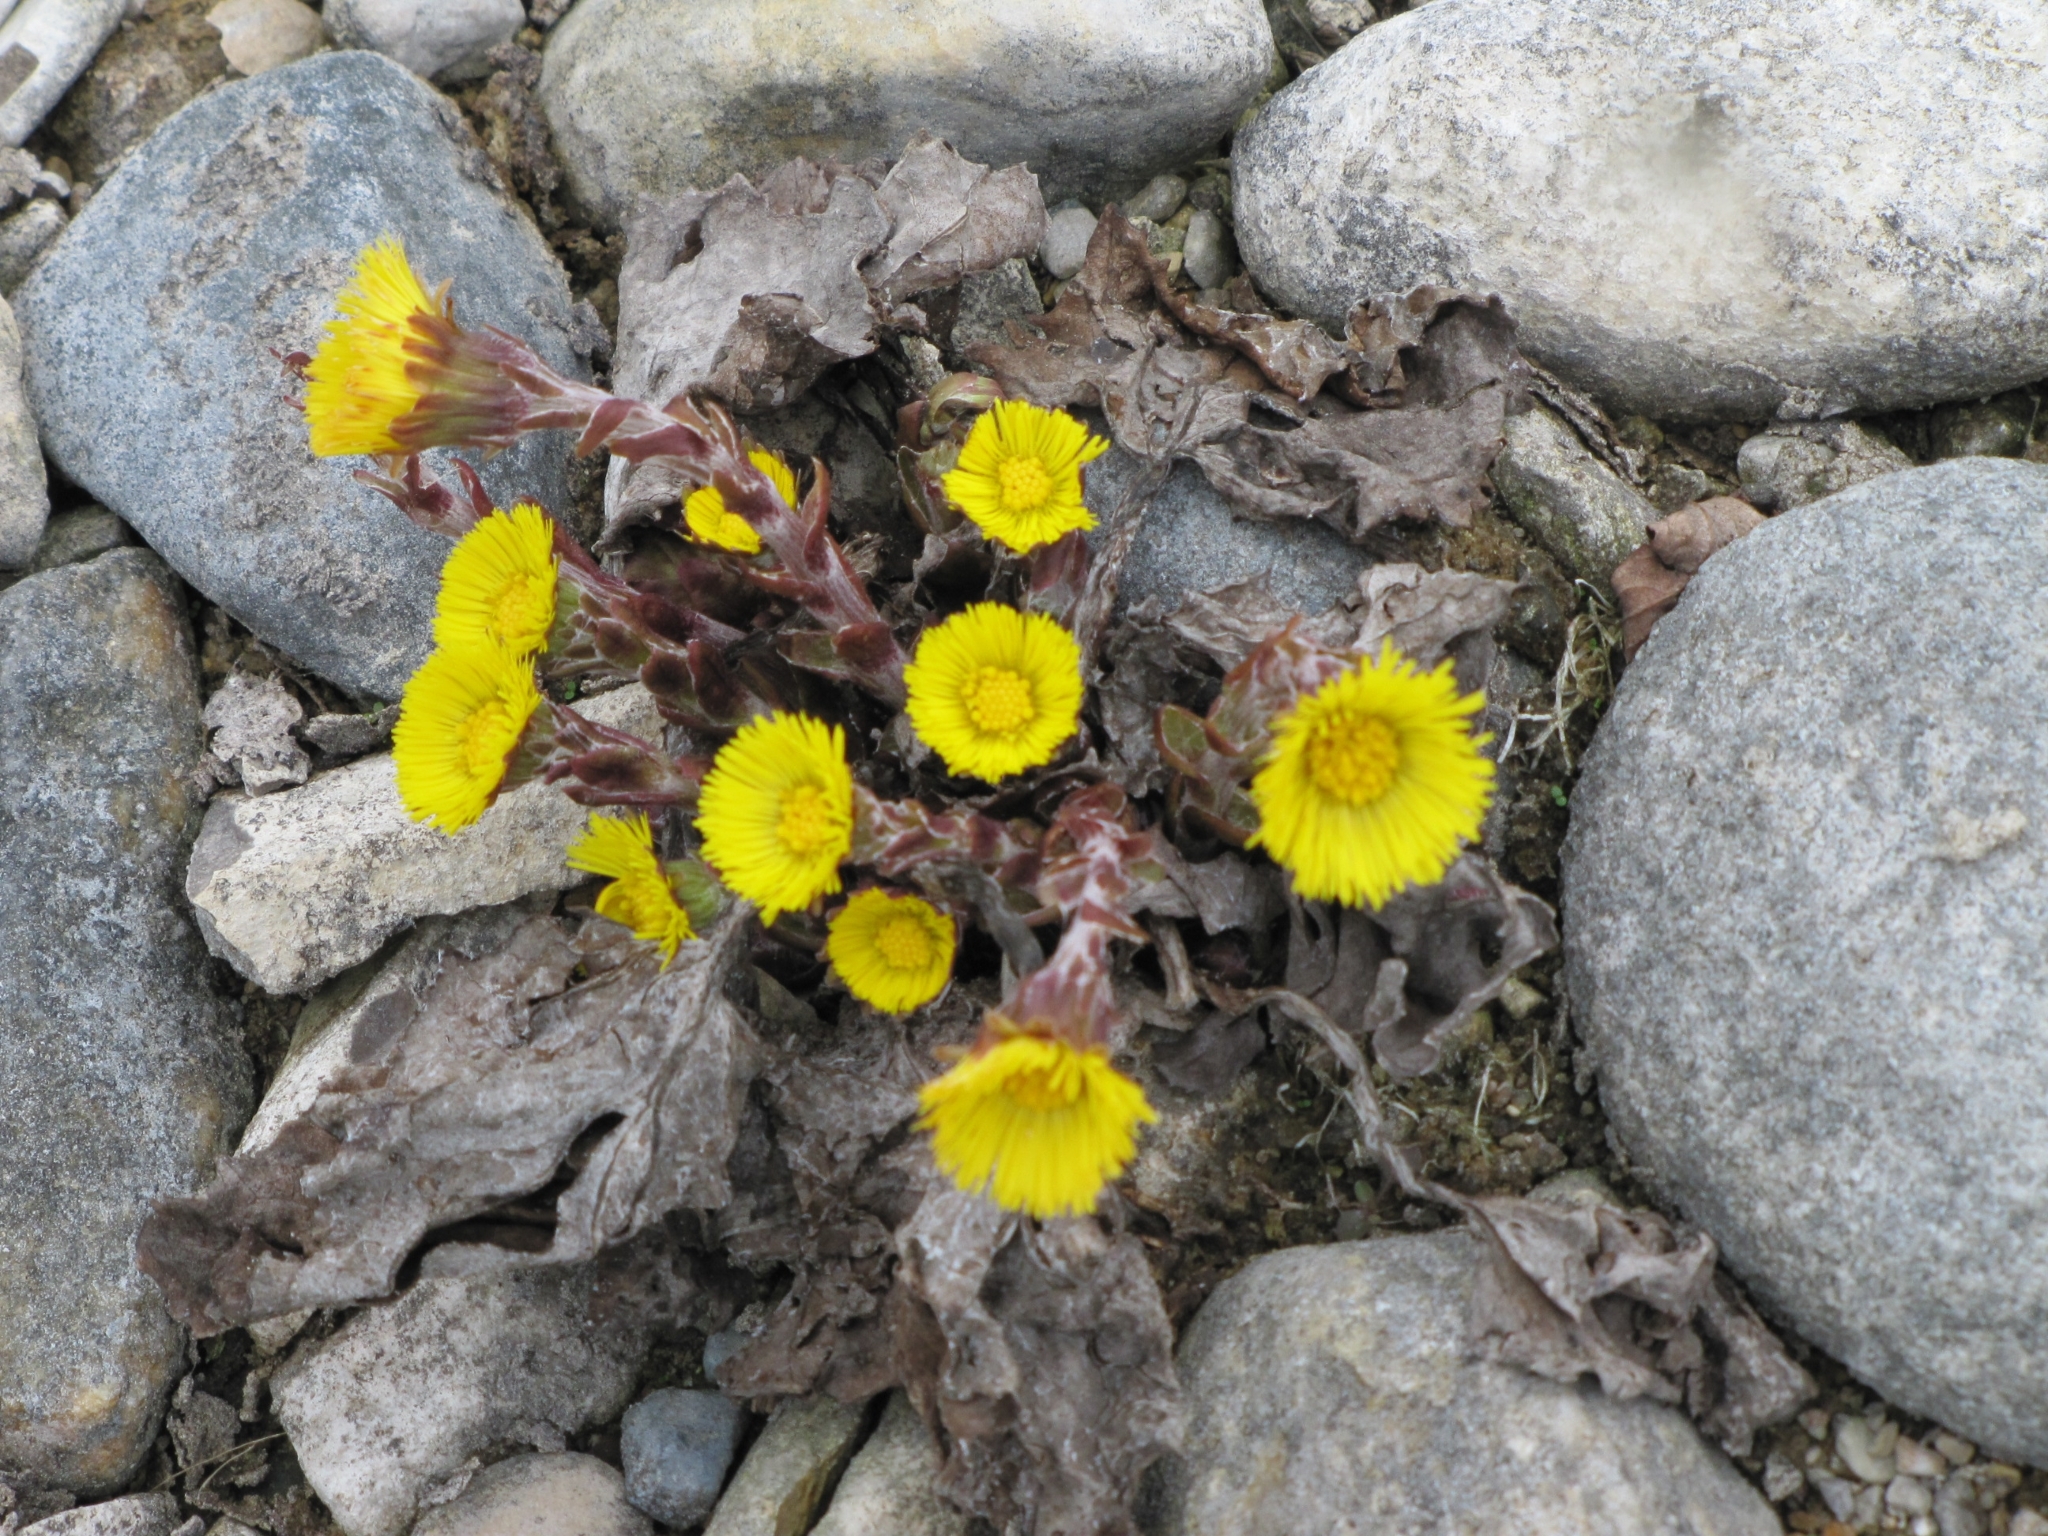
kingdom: Plantae
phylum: Tracheophyta
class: Magnoliopsida
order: Asterales
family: Asteraceae
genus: Tussilago
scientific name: Tussilago farfara
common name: Coltsfoot
